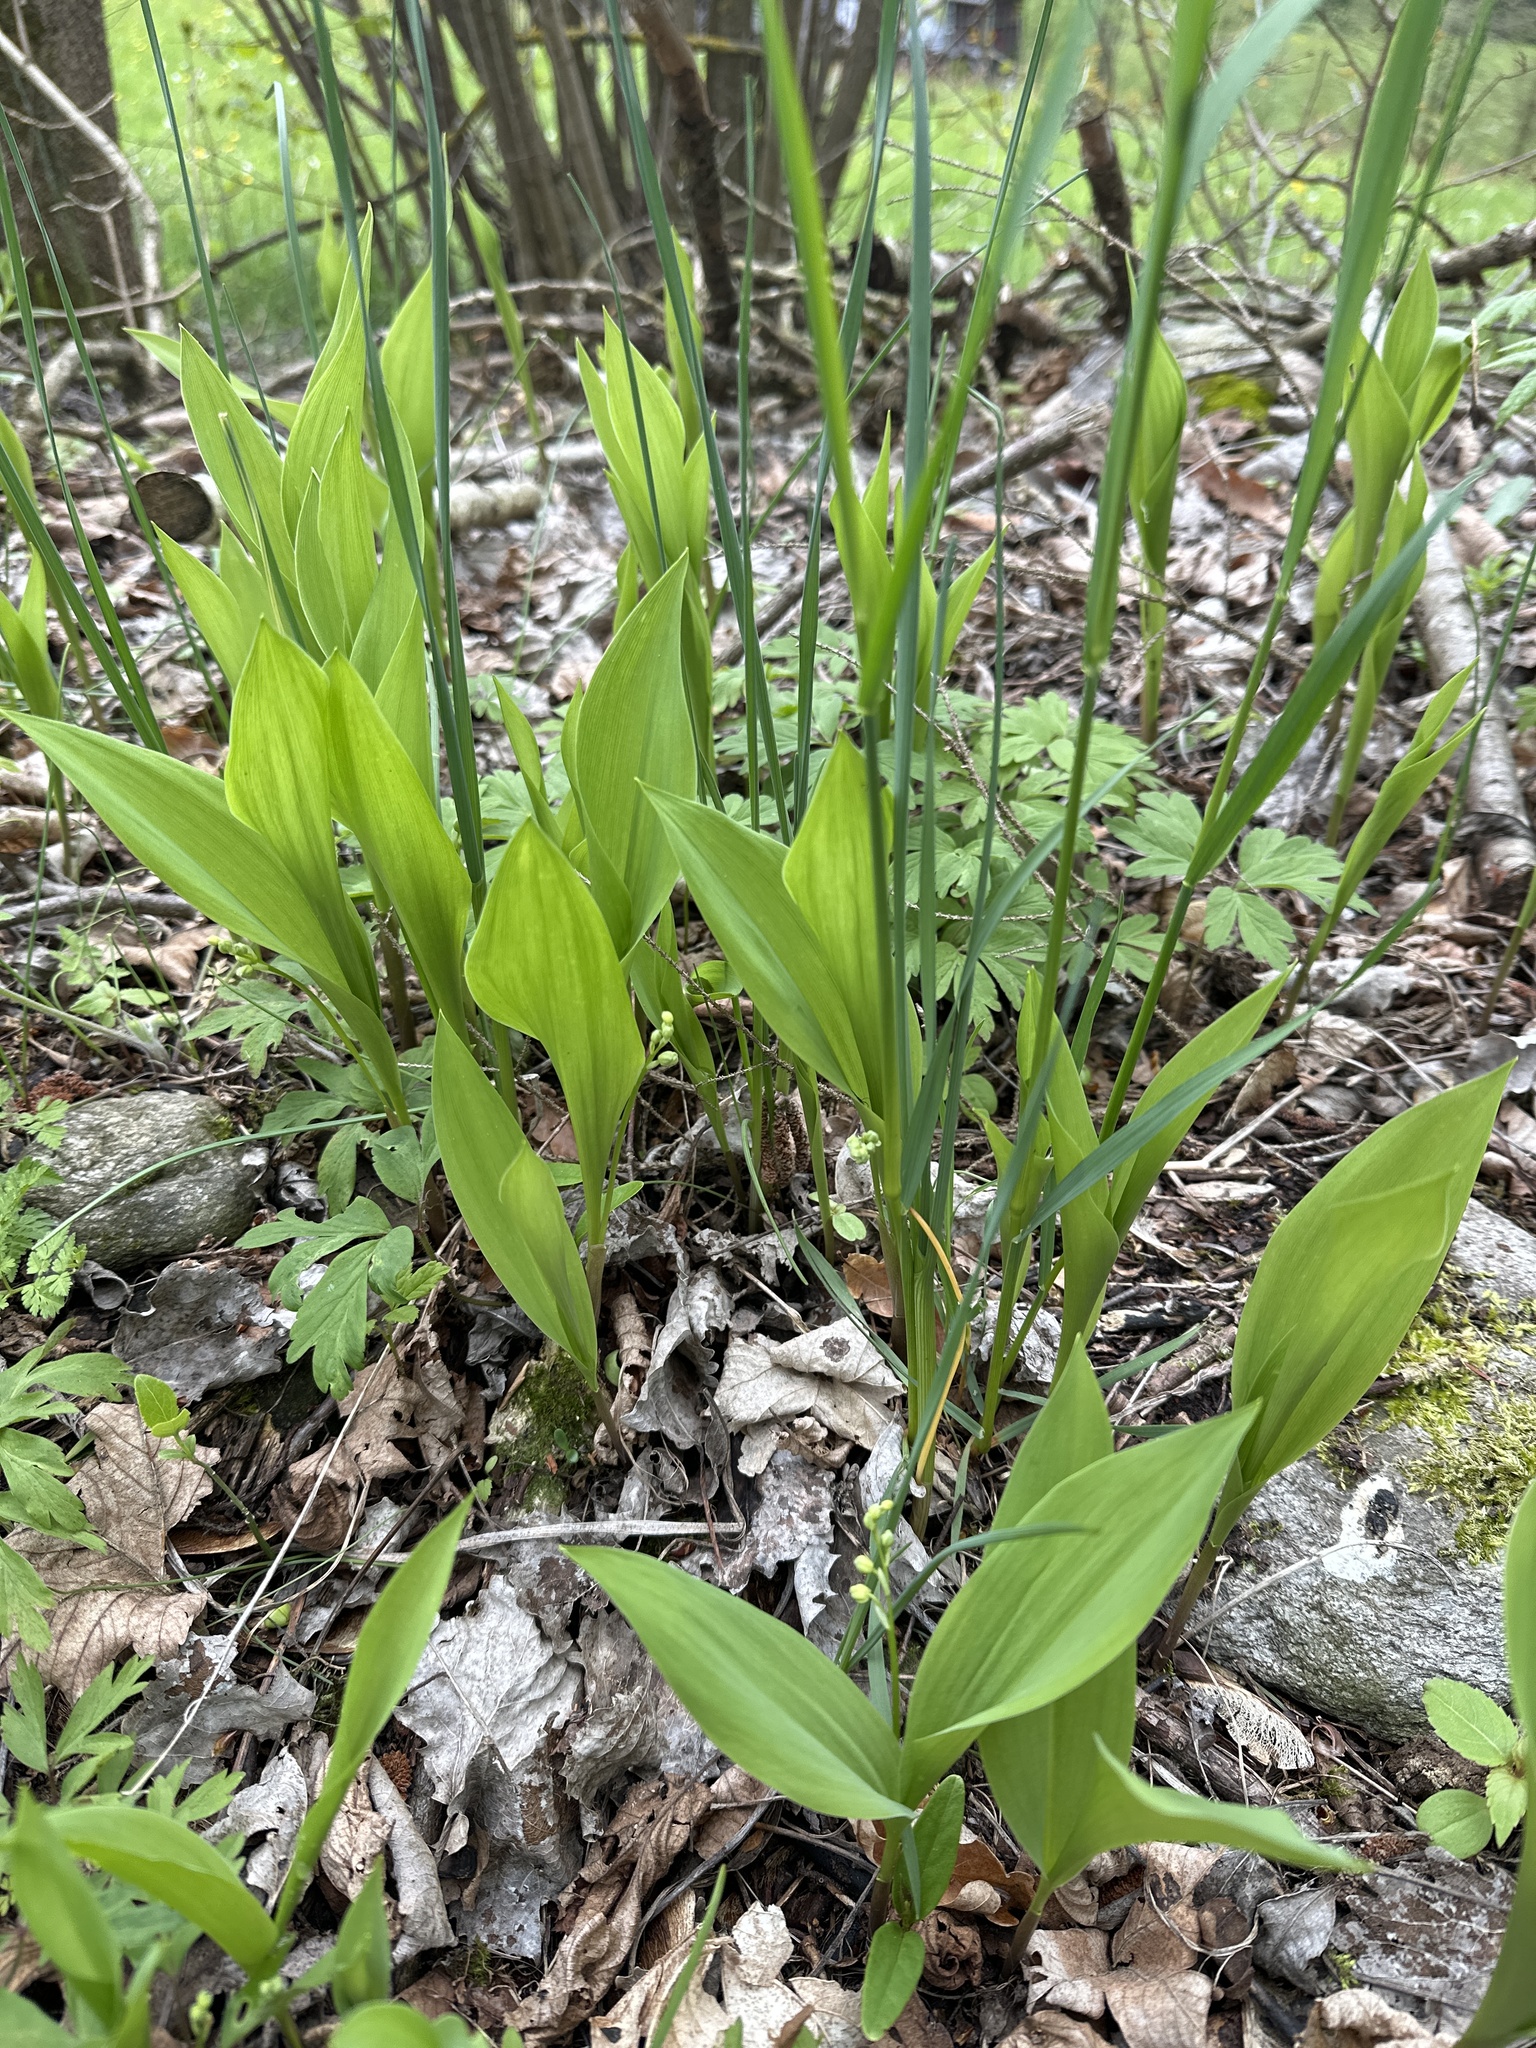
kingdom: Plantae
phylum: Tracheophyta
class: Liliopsida
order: Asparagales
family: Asparagaceae
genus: Convallaria
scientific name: Convallaria majalis
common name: Lily-of-the-valley
